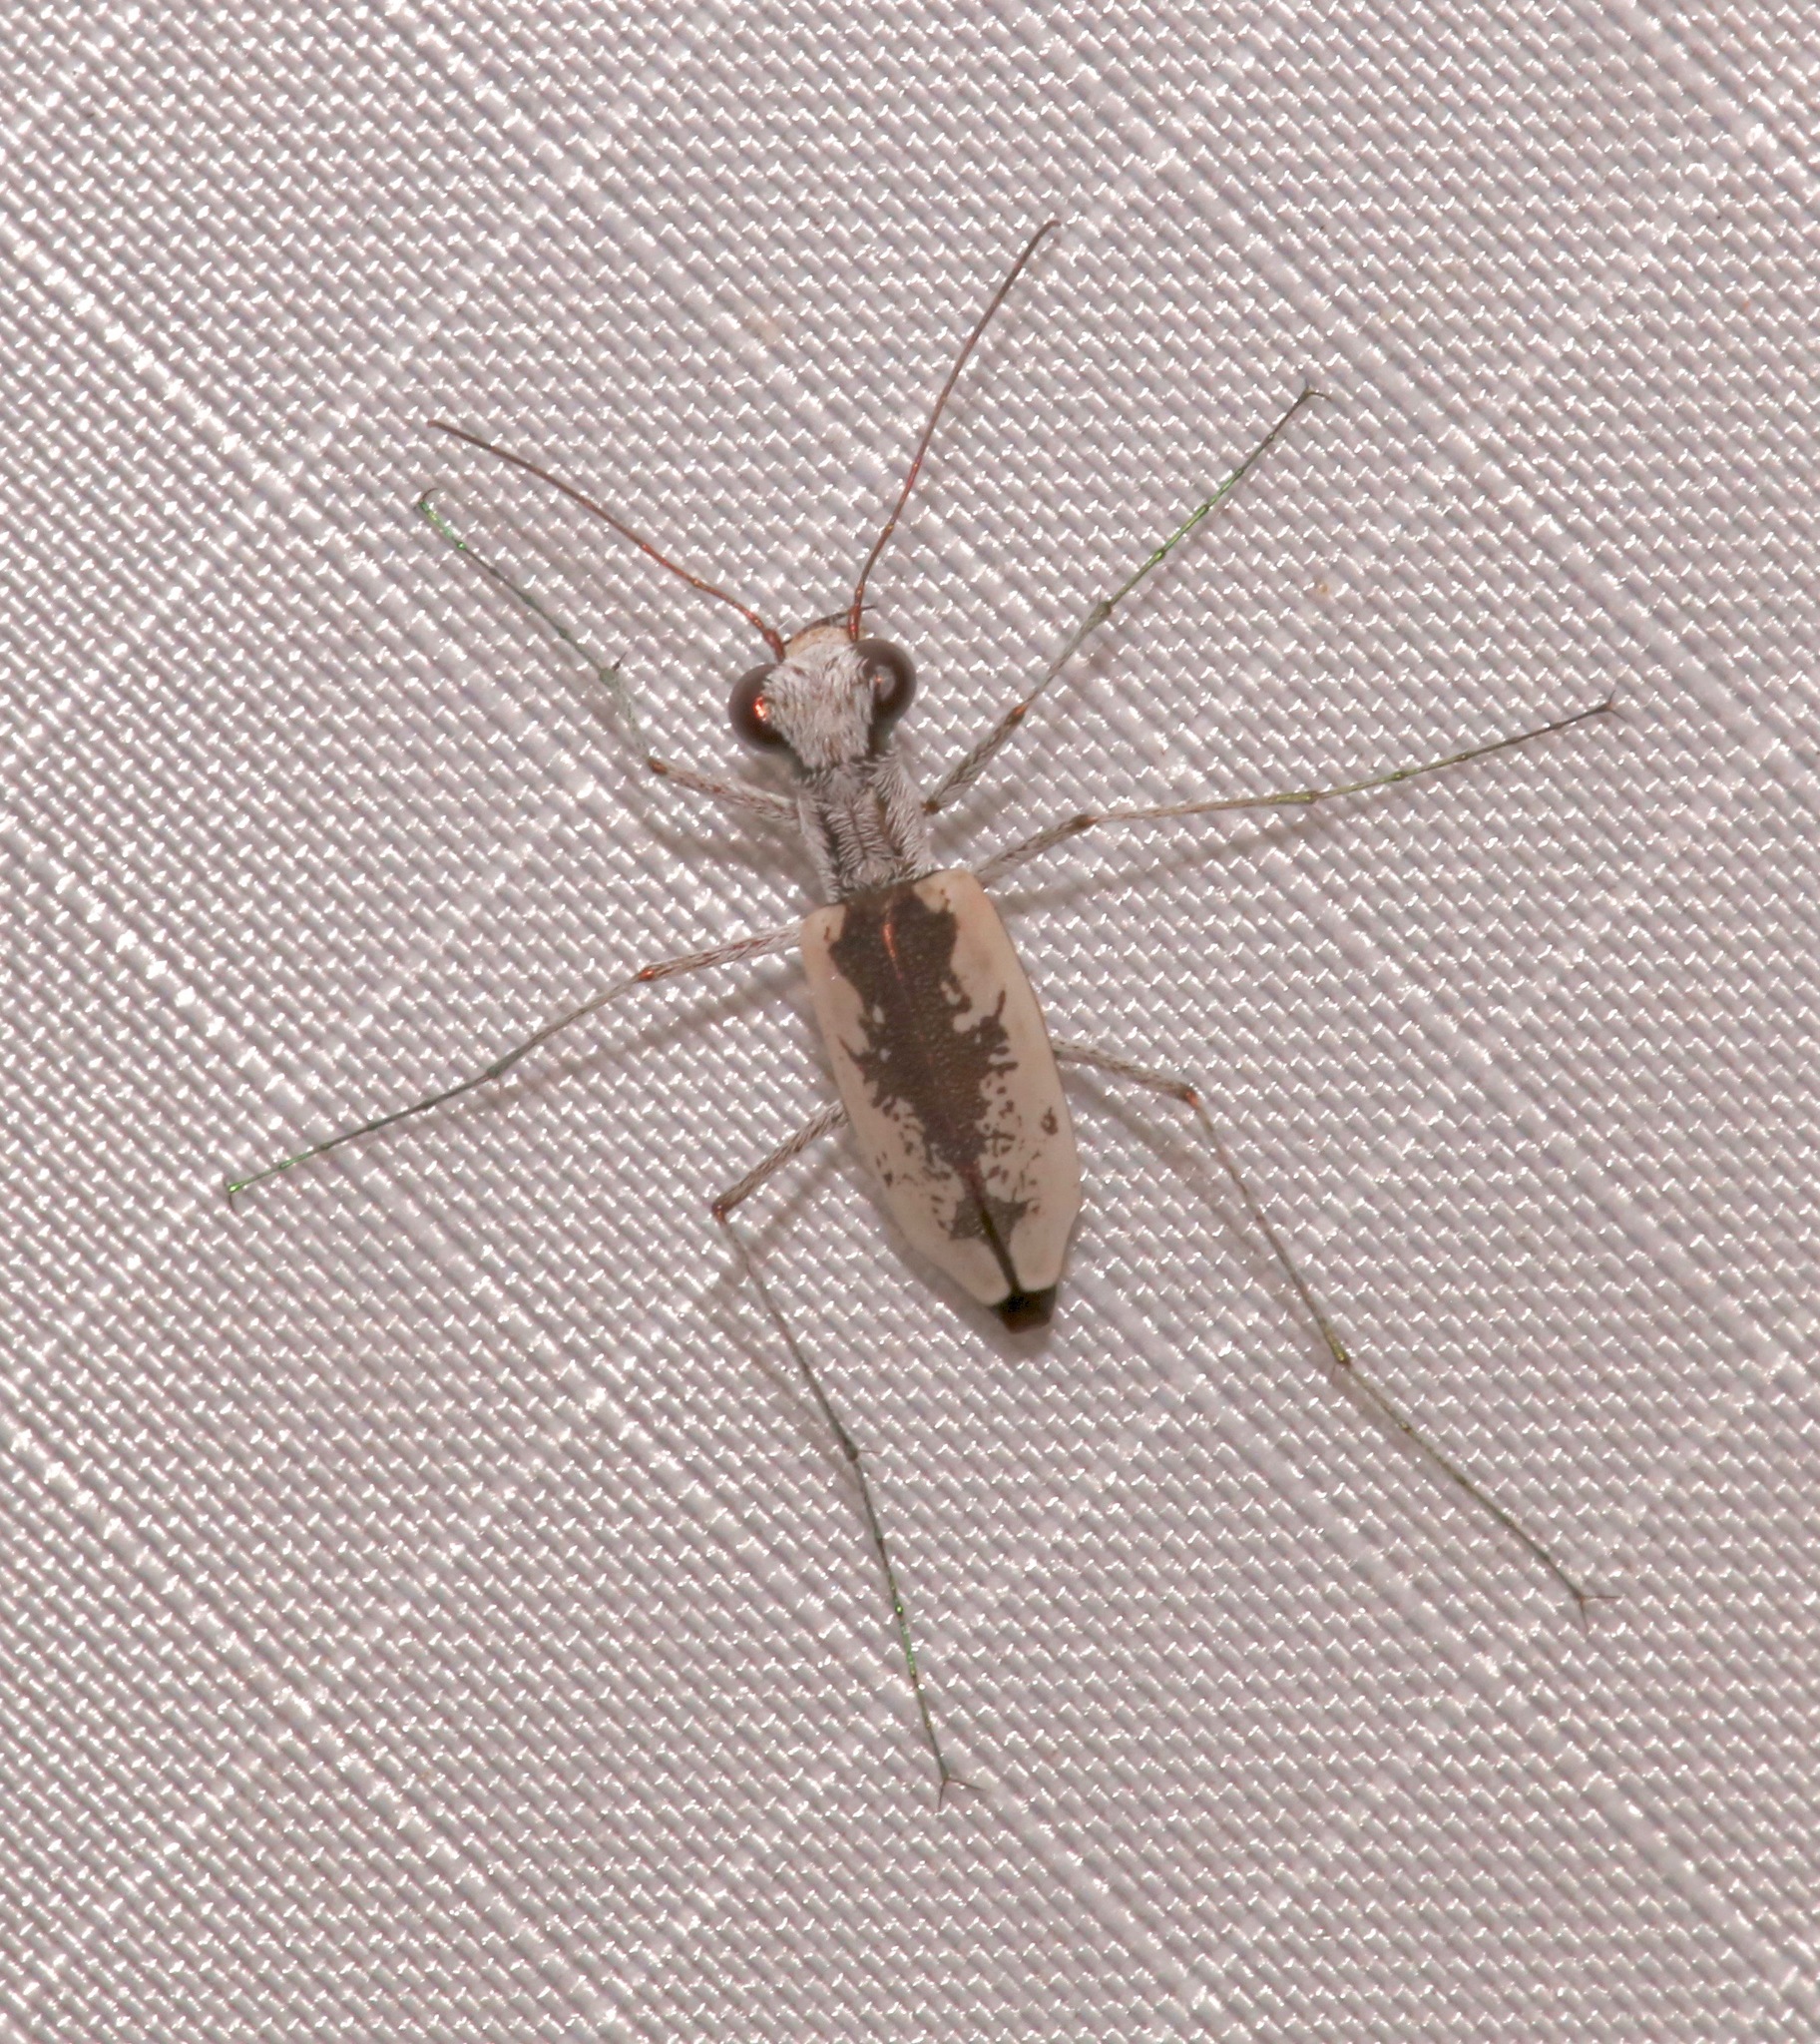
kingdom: Animalia
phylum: Arthropoda
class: Insecta
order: Coleoptera
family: Carabidae
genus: Ellipsoptera
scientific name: Ellipsoptera hirtilabris
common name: Moustached tiger beetle
